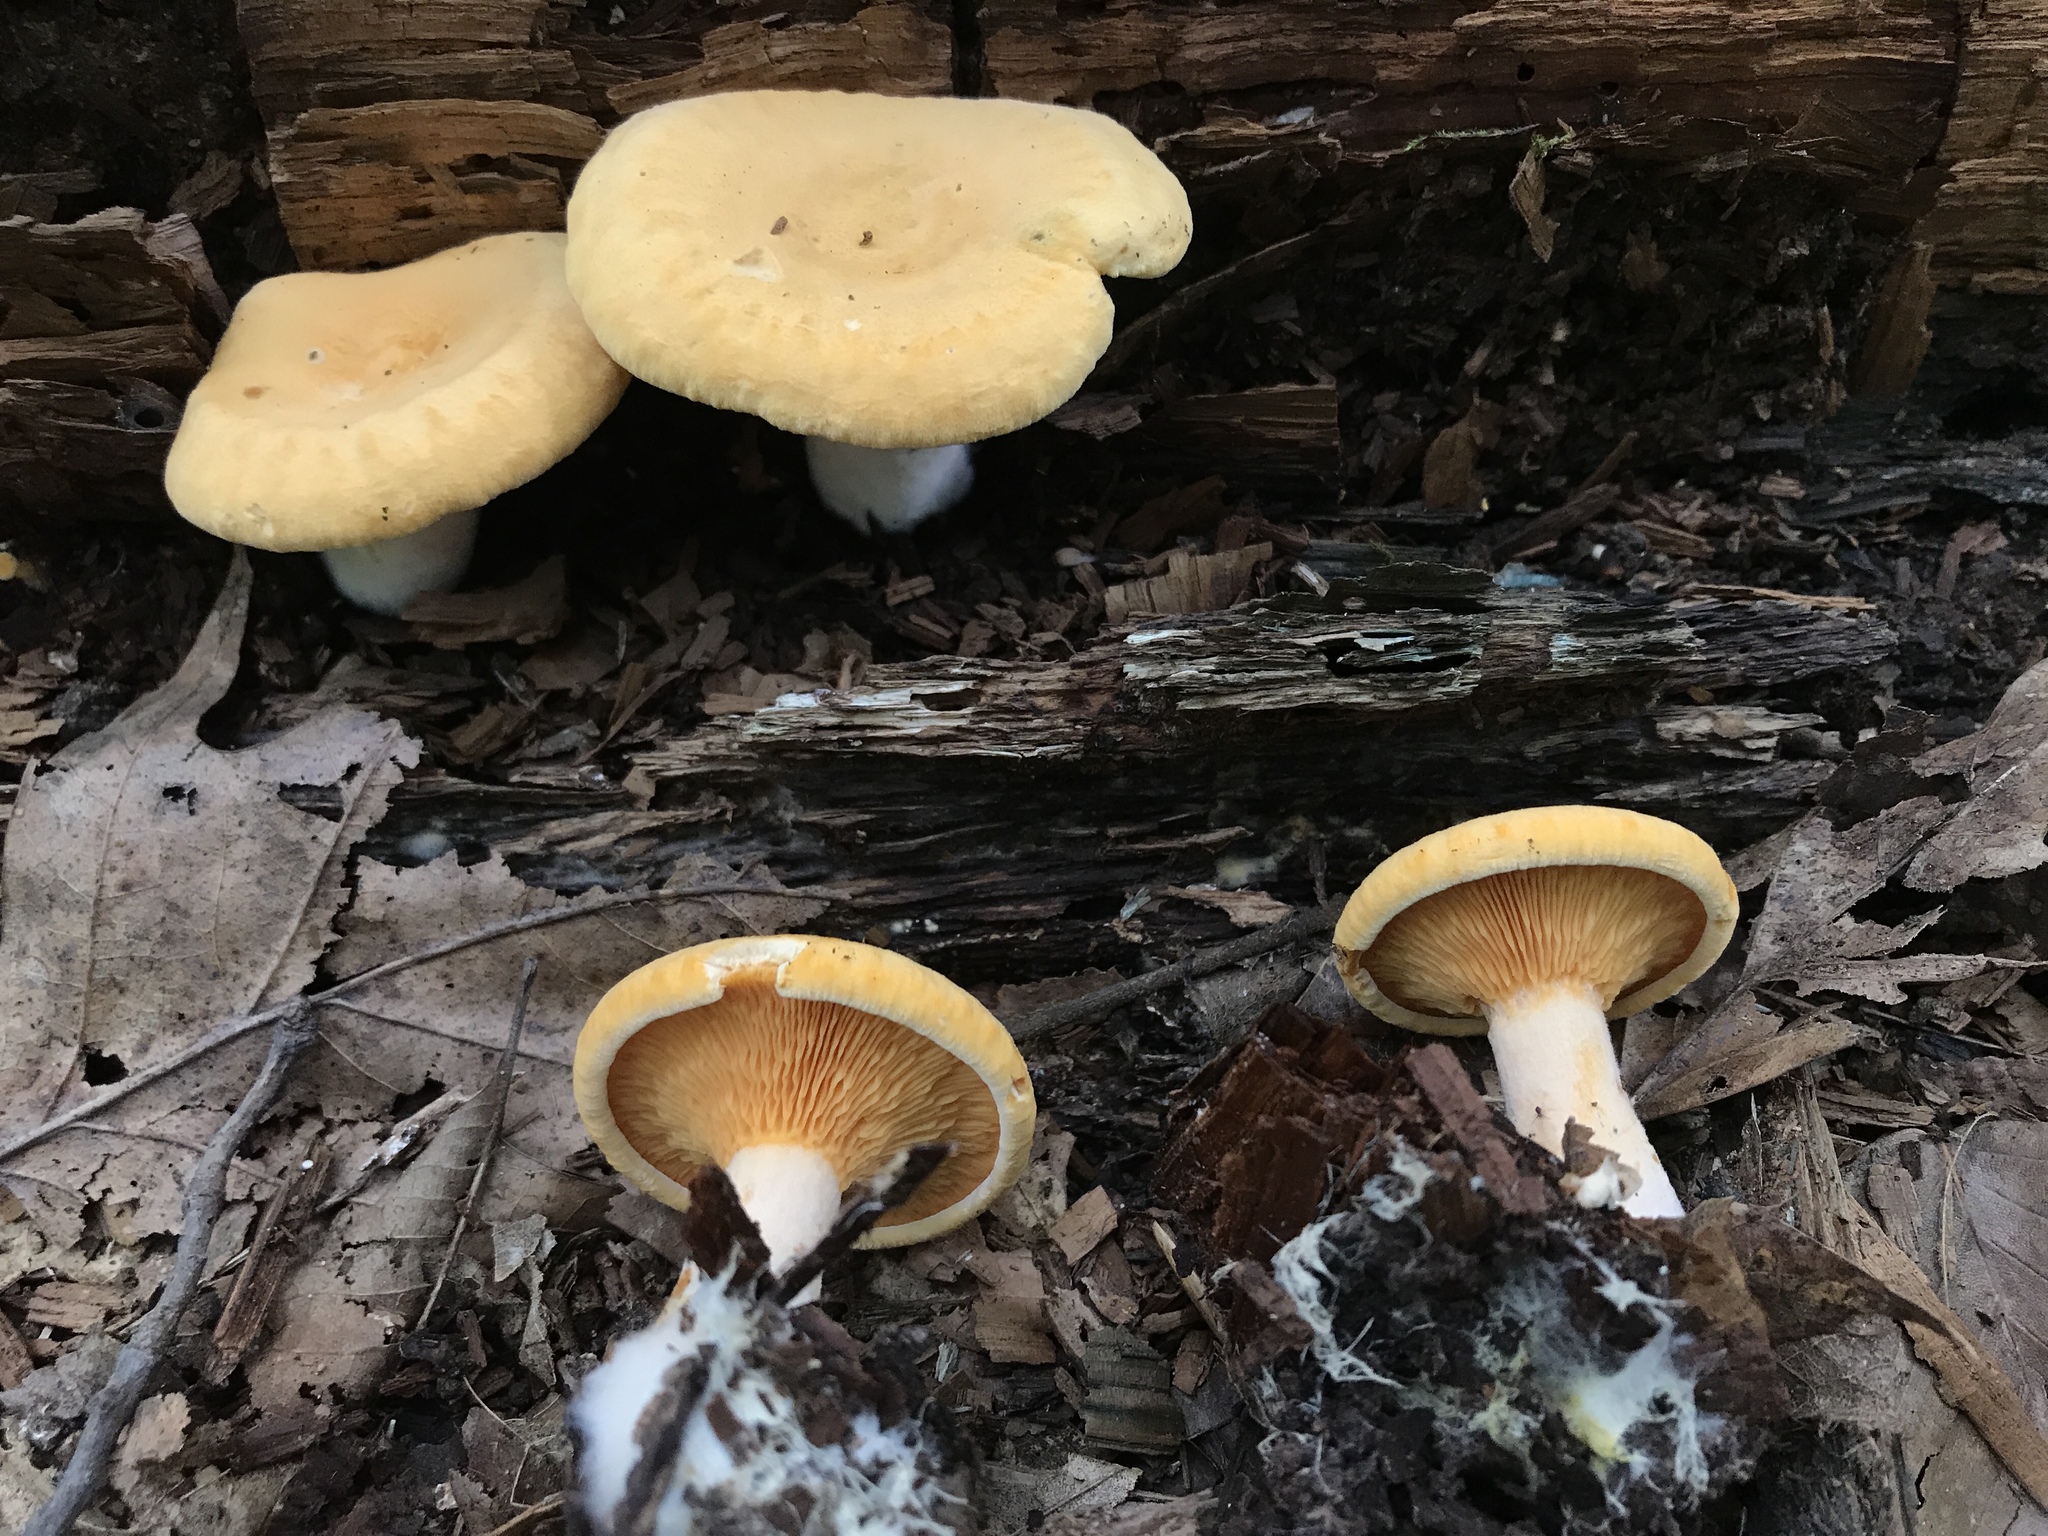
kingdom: Fungi
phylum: Basidiomycota
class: Agaricomycetes
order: Boletales
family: Hygrophoropsidaceae
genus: Hygrophoropsis
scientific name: Hygrophoropsis aurantiaca
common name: False chanterelle
